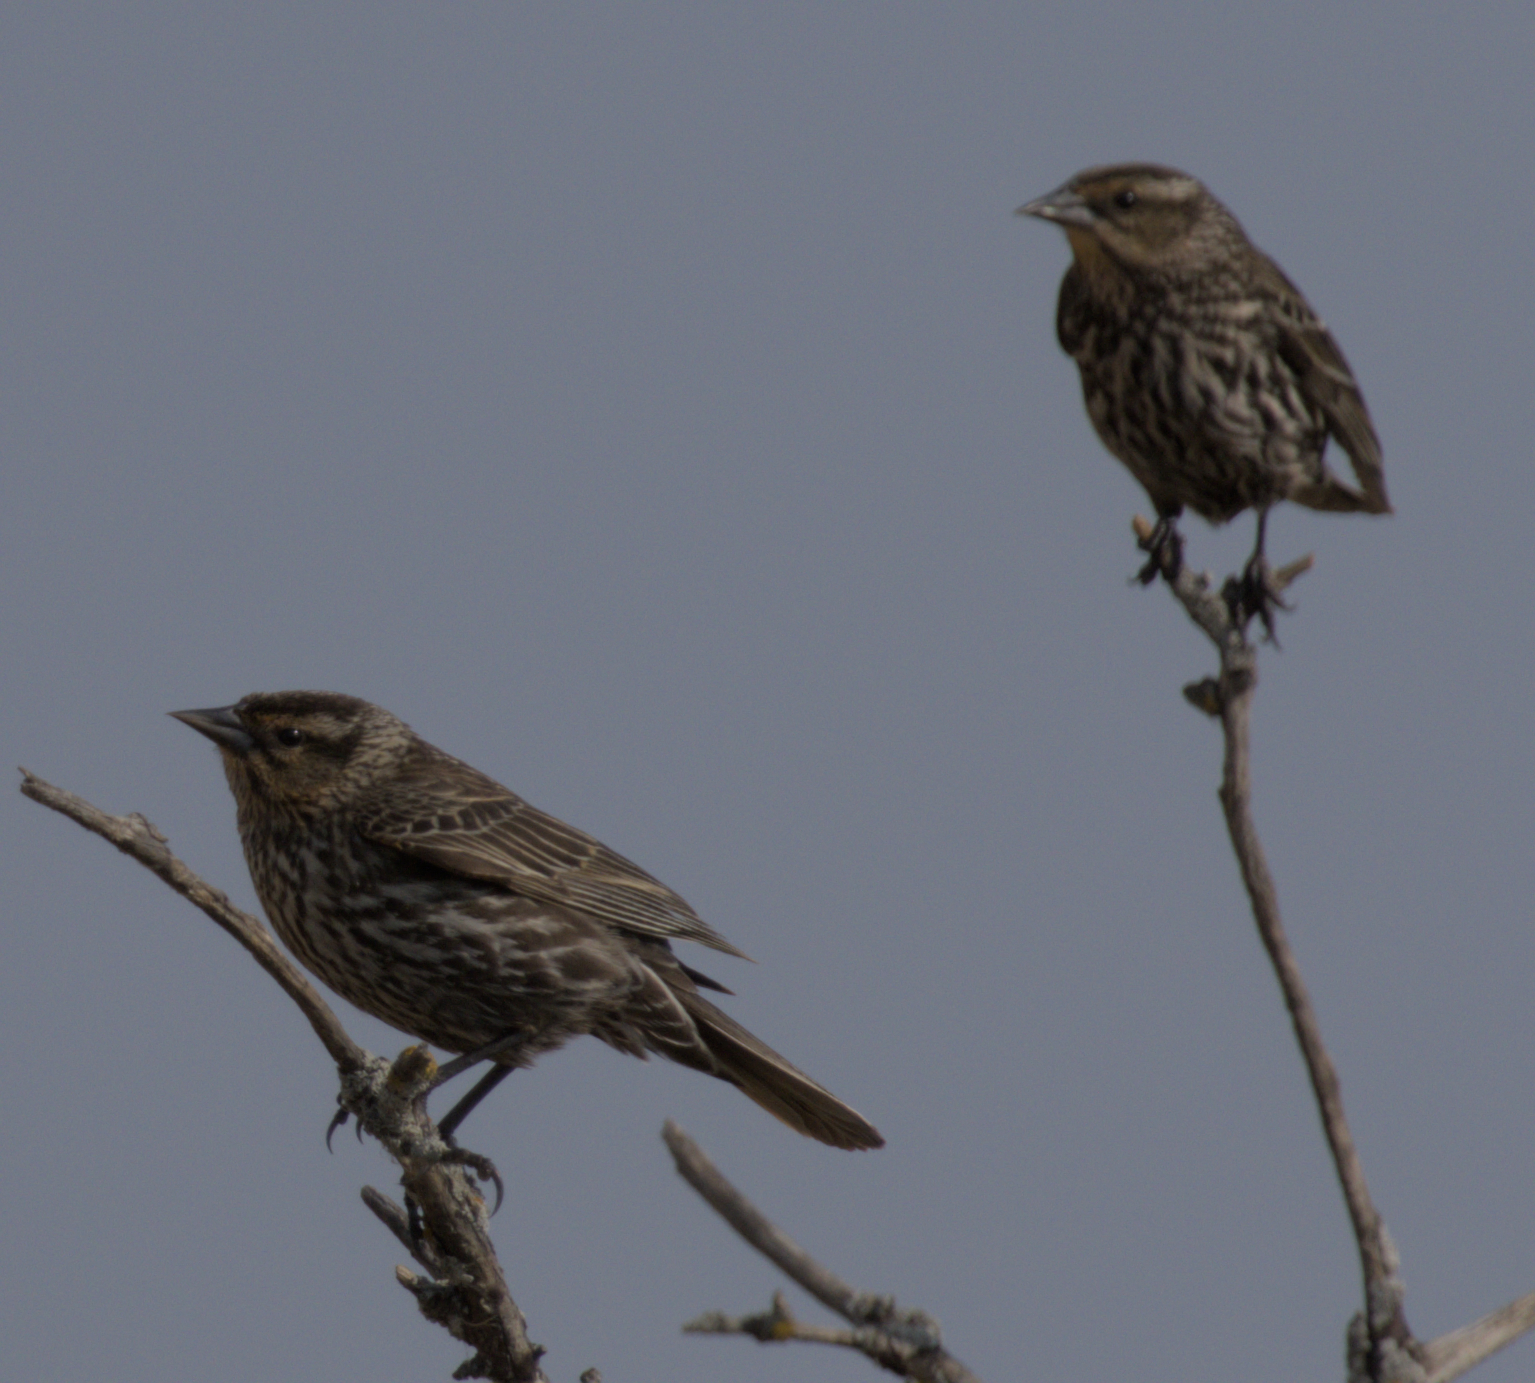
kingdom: Animalia
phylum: Chordata
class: Aves
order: Passeriformes
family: Icteridae
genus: Agelaius
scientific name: Agelaius phoeniceus
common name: Red-winged blackbird
